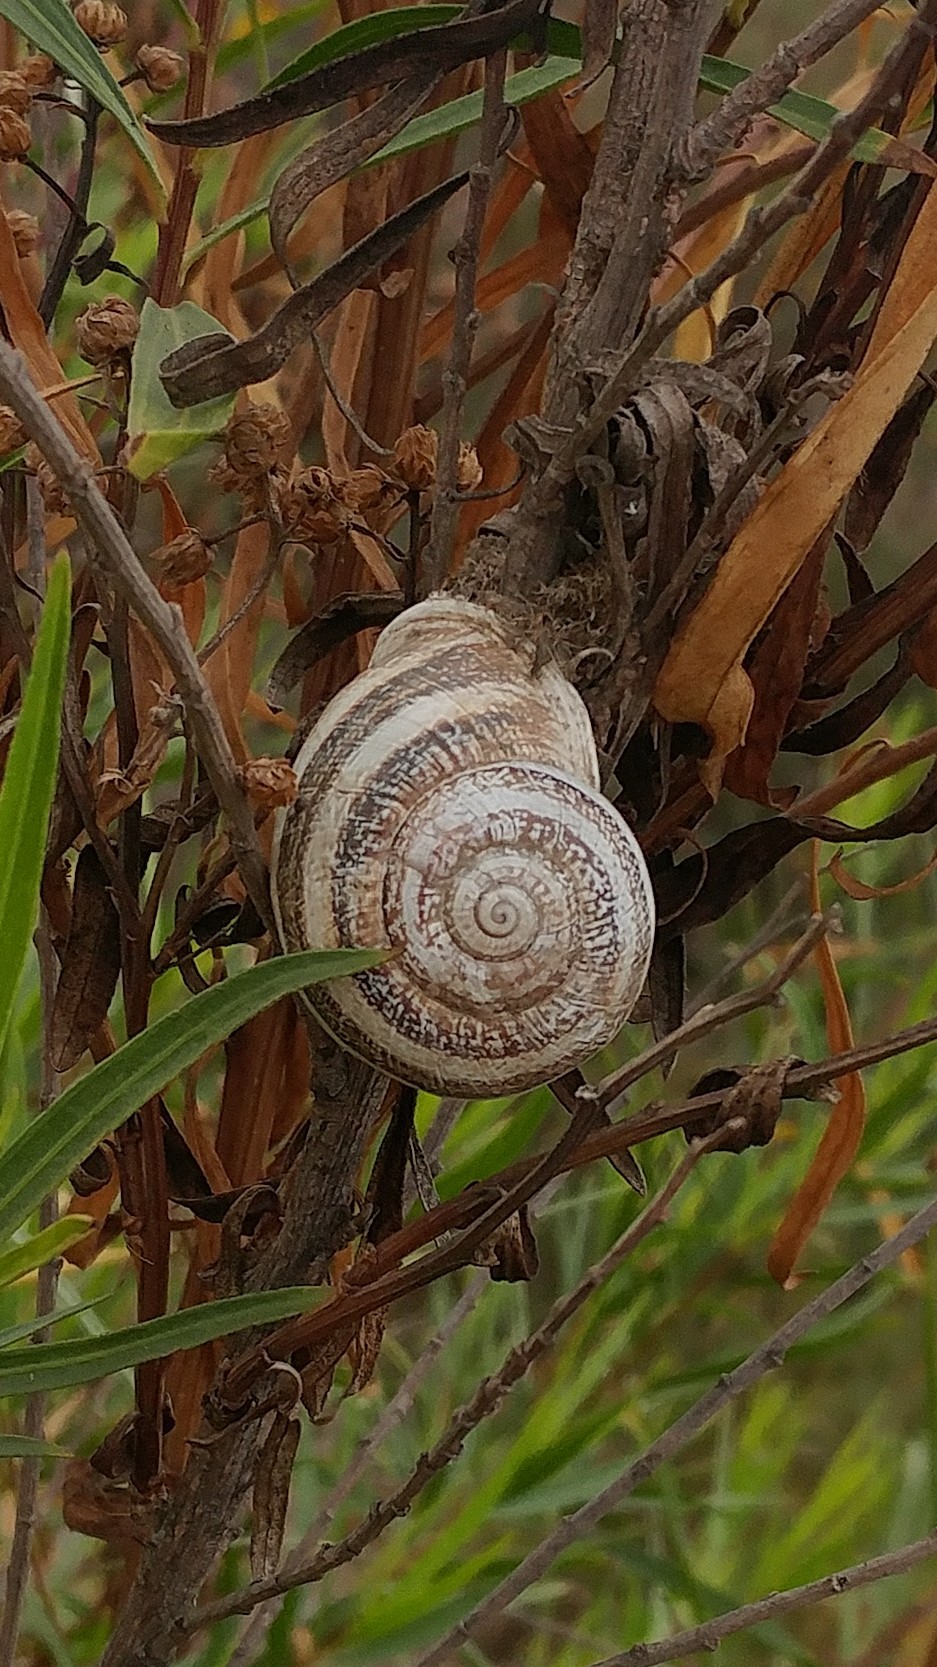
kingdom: Animalia
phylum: Mollusca
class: Gastropoda
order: Stylommatophora
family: Helicidae
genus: Otala
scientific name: Otala lactea
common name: Milk snail
